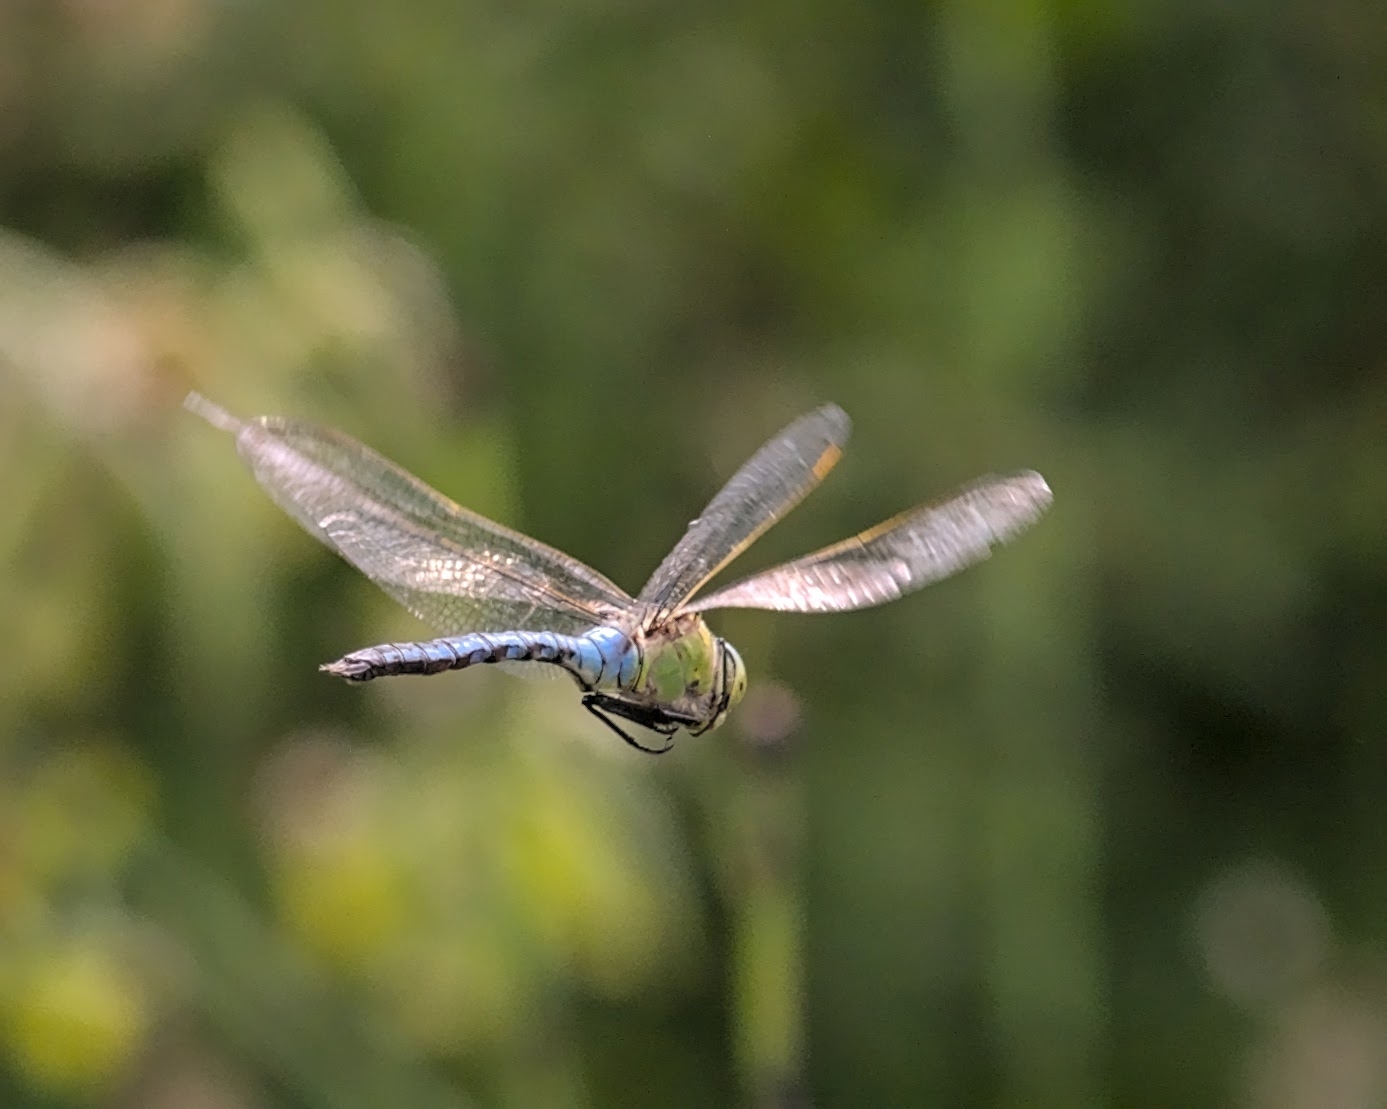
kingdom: Animalia
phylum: Arthropoda
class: Insecta
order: Odonata
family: Aeshnidae
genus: Anax
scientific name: Anax imperator
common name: Emperor dragonfly
